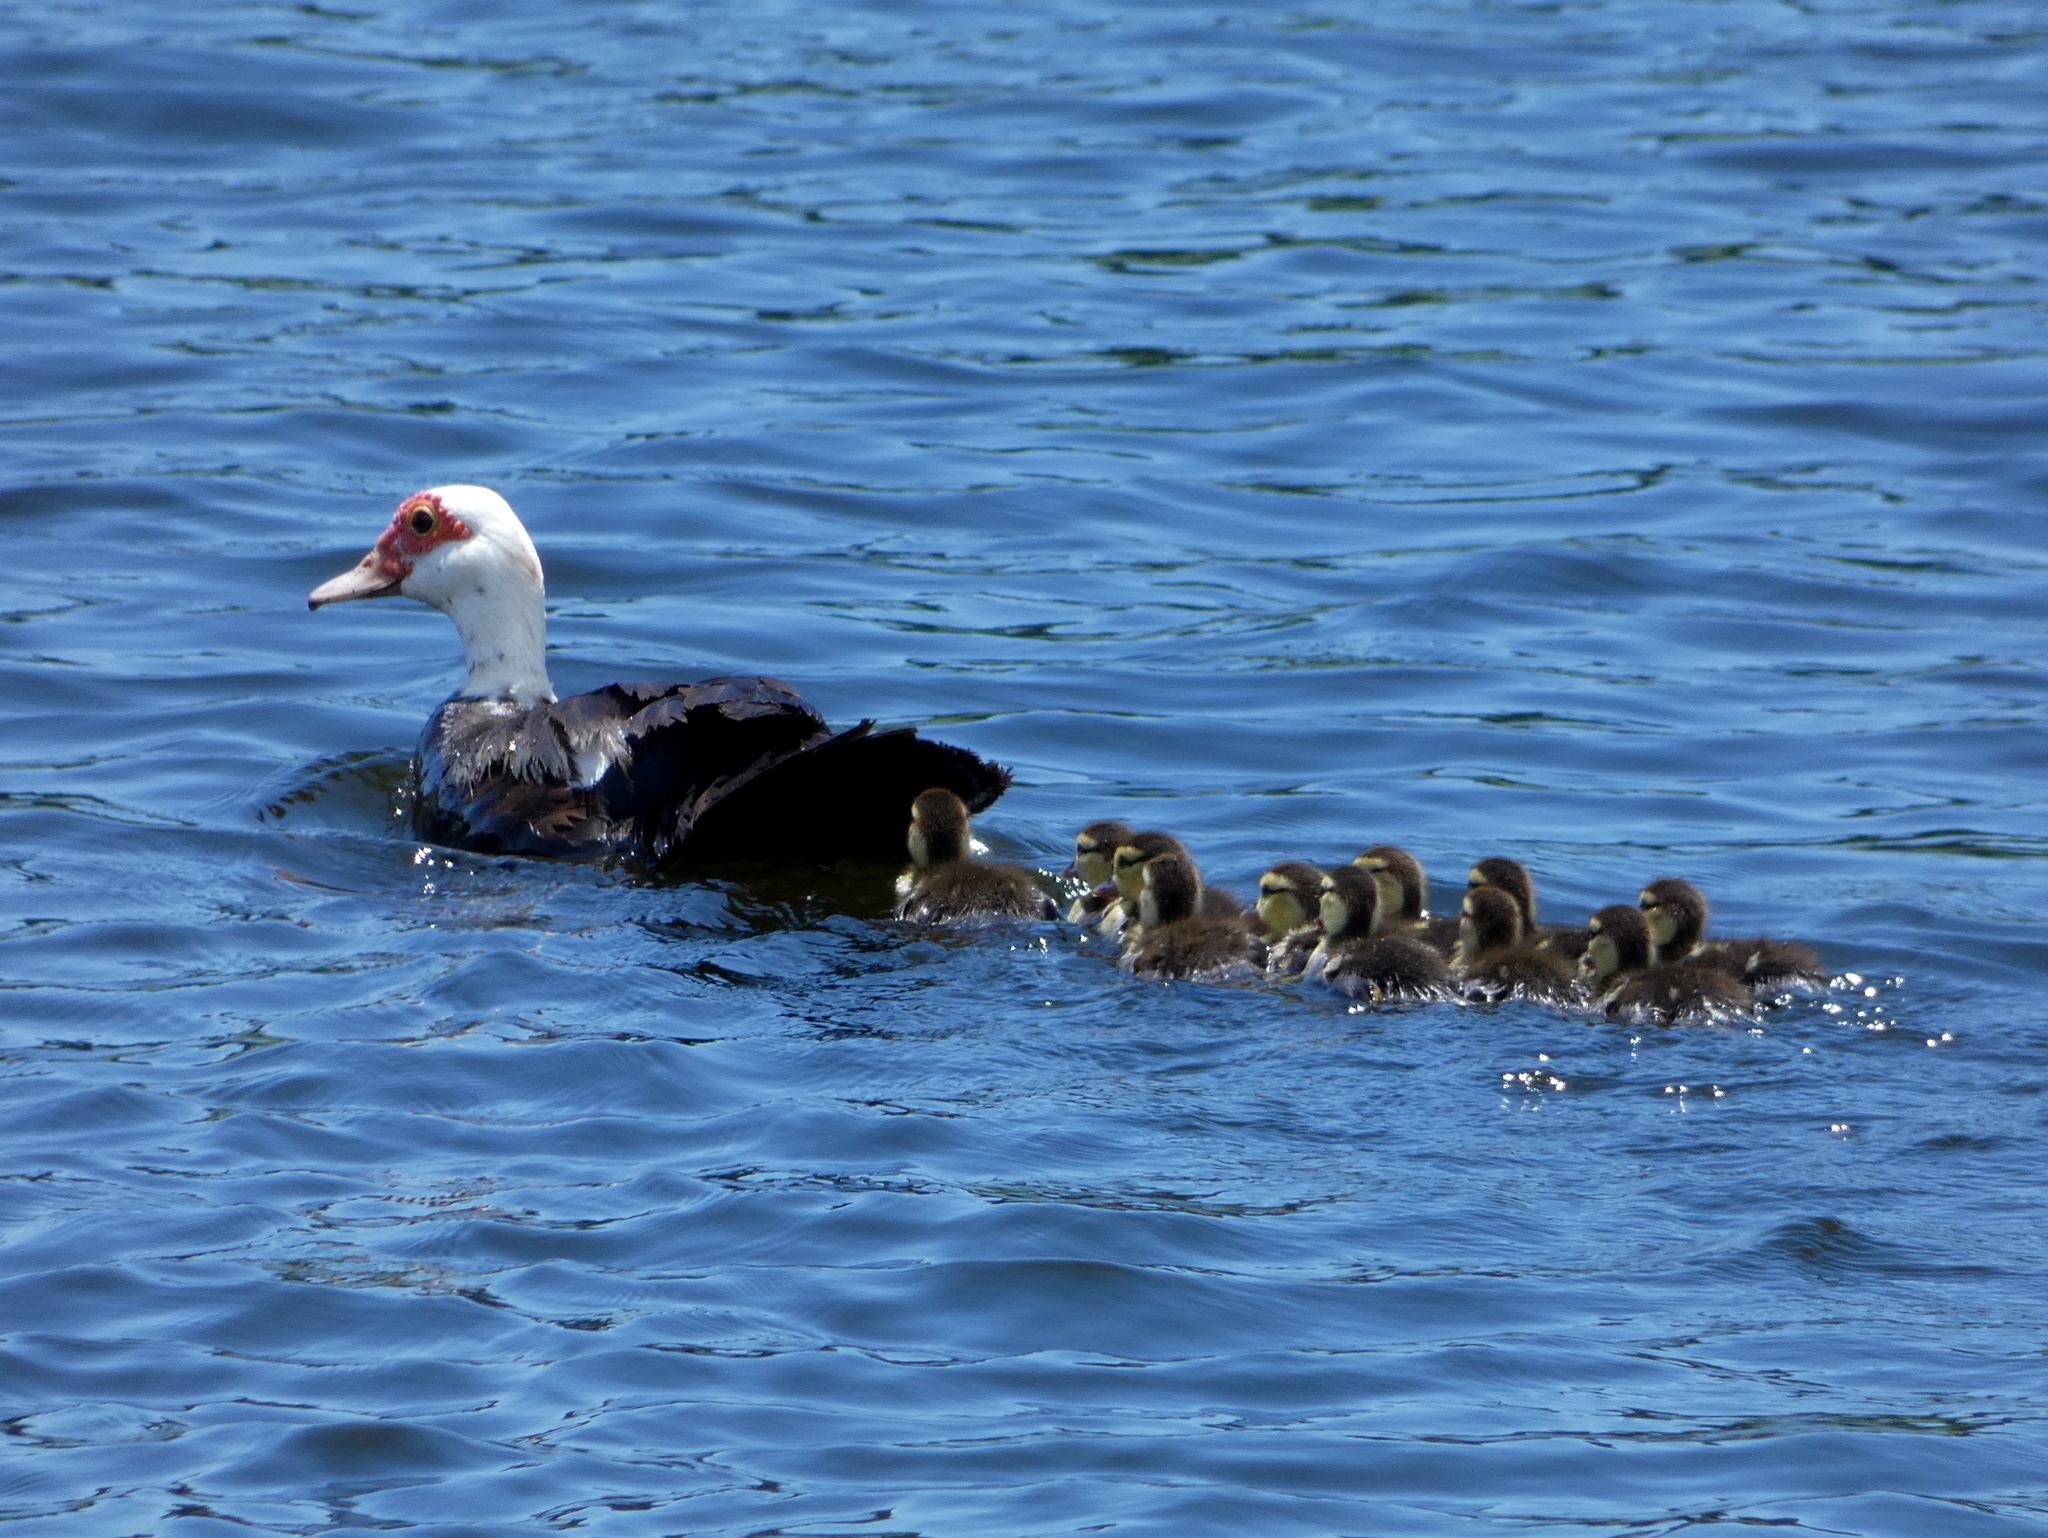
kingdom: Animalia
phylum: Chordata
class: Aves
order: Anseriformes
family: Anatidae
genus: Cairina
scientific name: Cairina moschata
